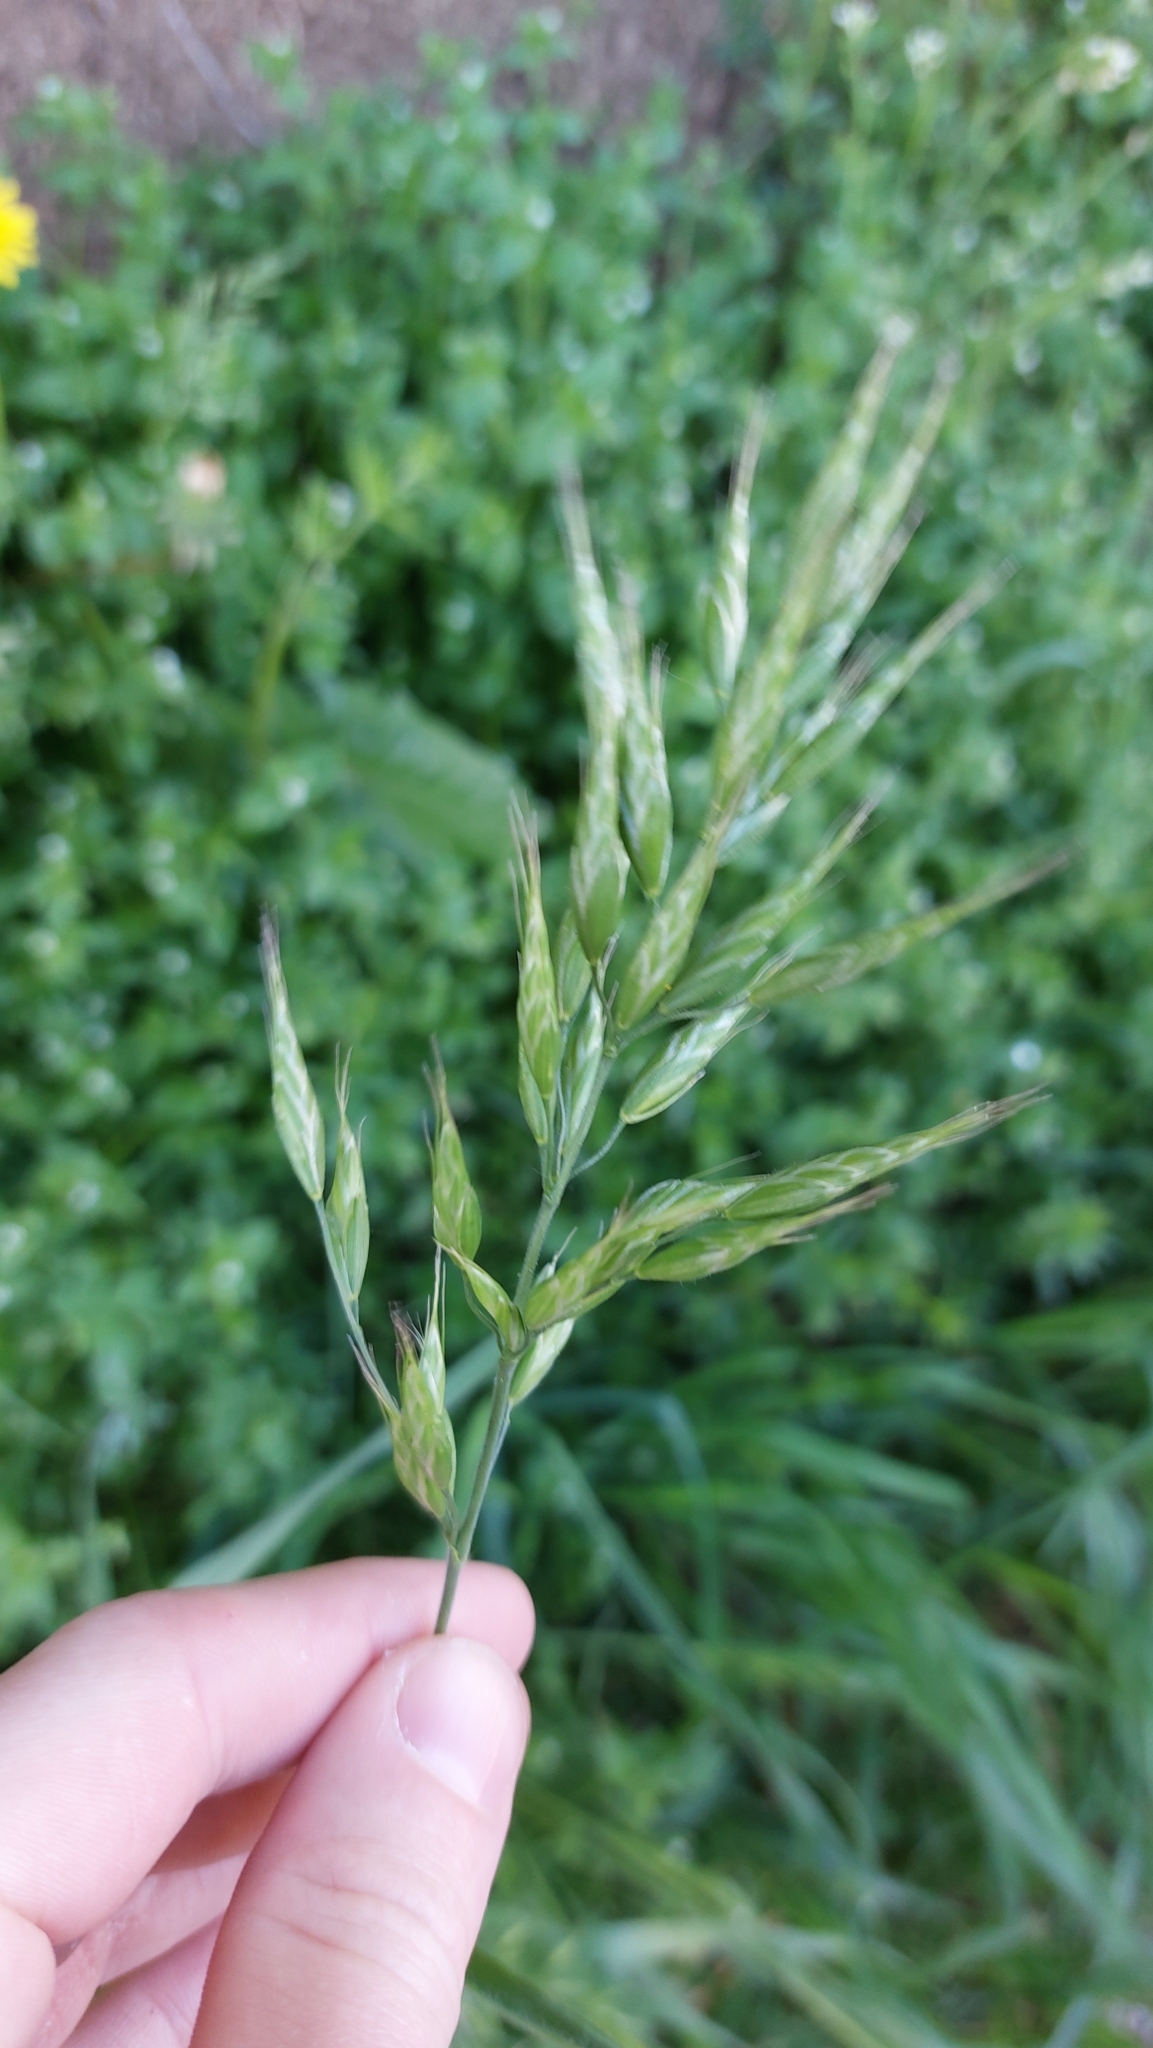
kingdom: Plantae
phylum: Tracheophyta
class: Liliopsida
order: Poales
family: Poaceae
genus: Bromus
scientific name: Bromus hordeaceus
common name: Soft brome
